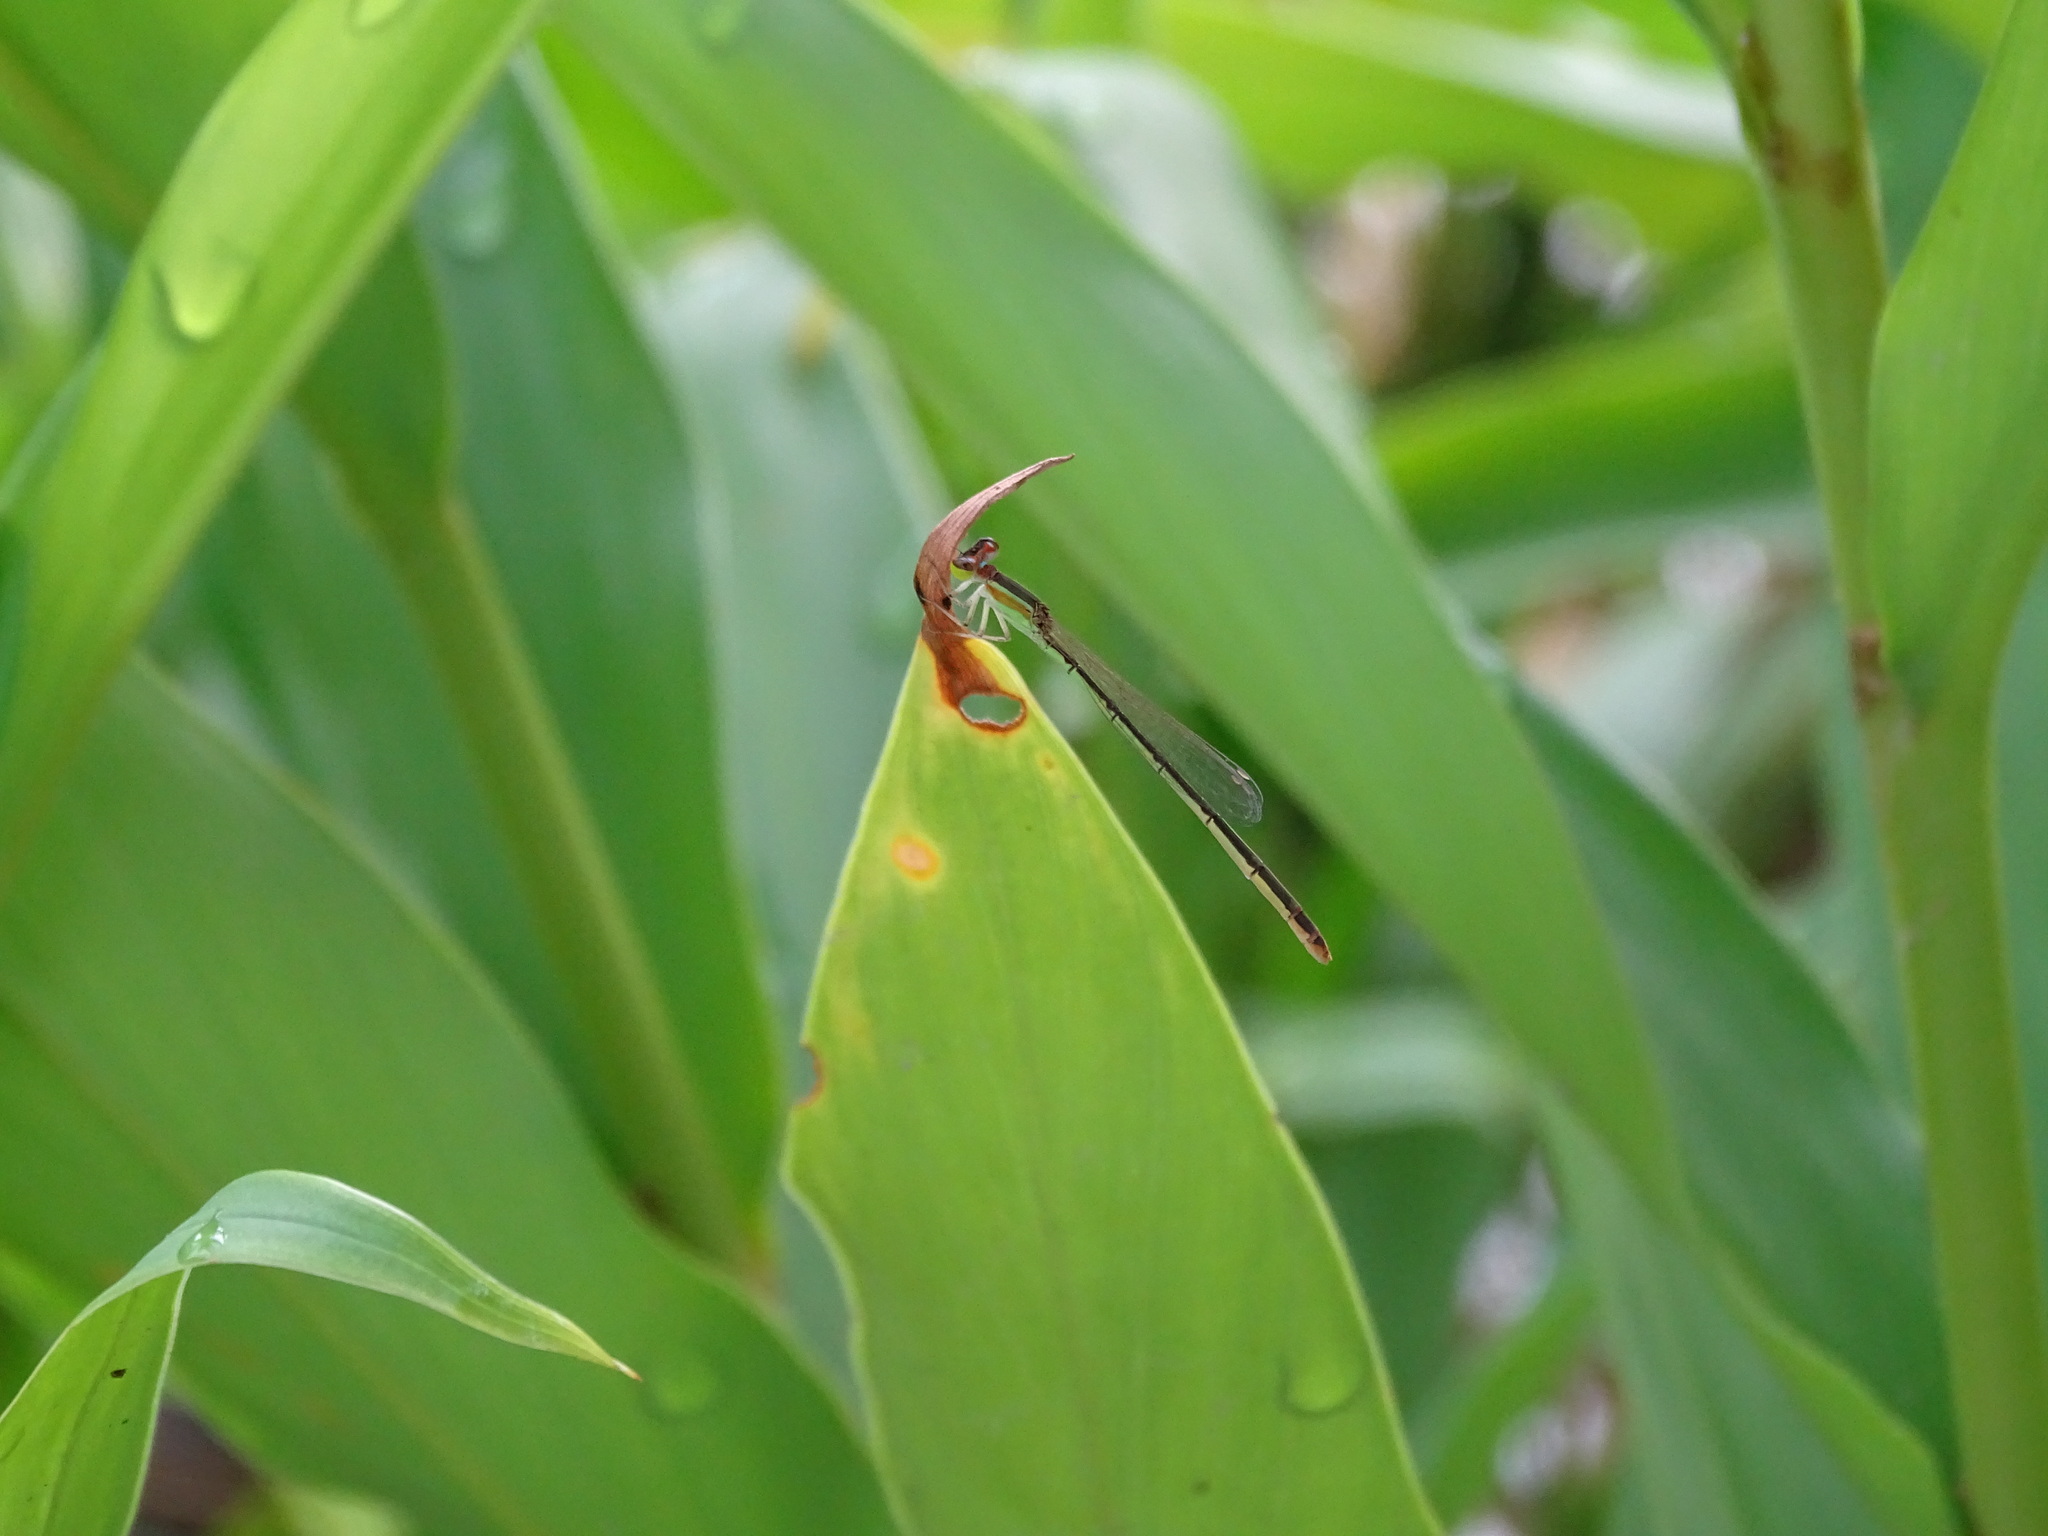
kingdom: Animalia
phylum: Arthropoda
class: Insecta
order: Odonata
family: Coenagrionidae
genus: Agriocnemis
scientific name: Agriocnemis femina
